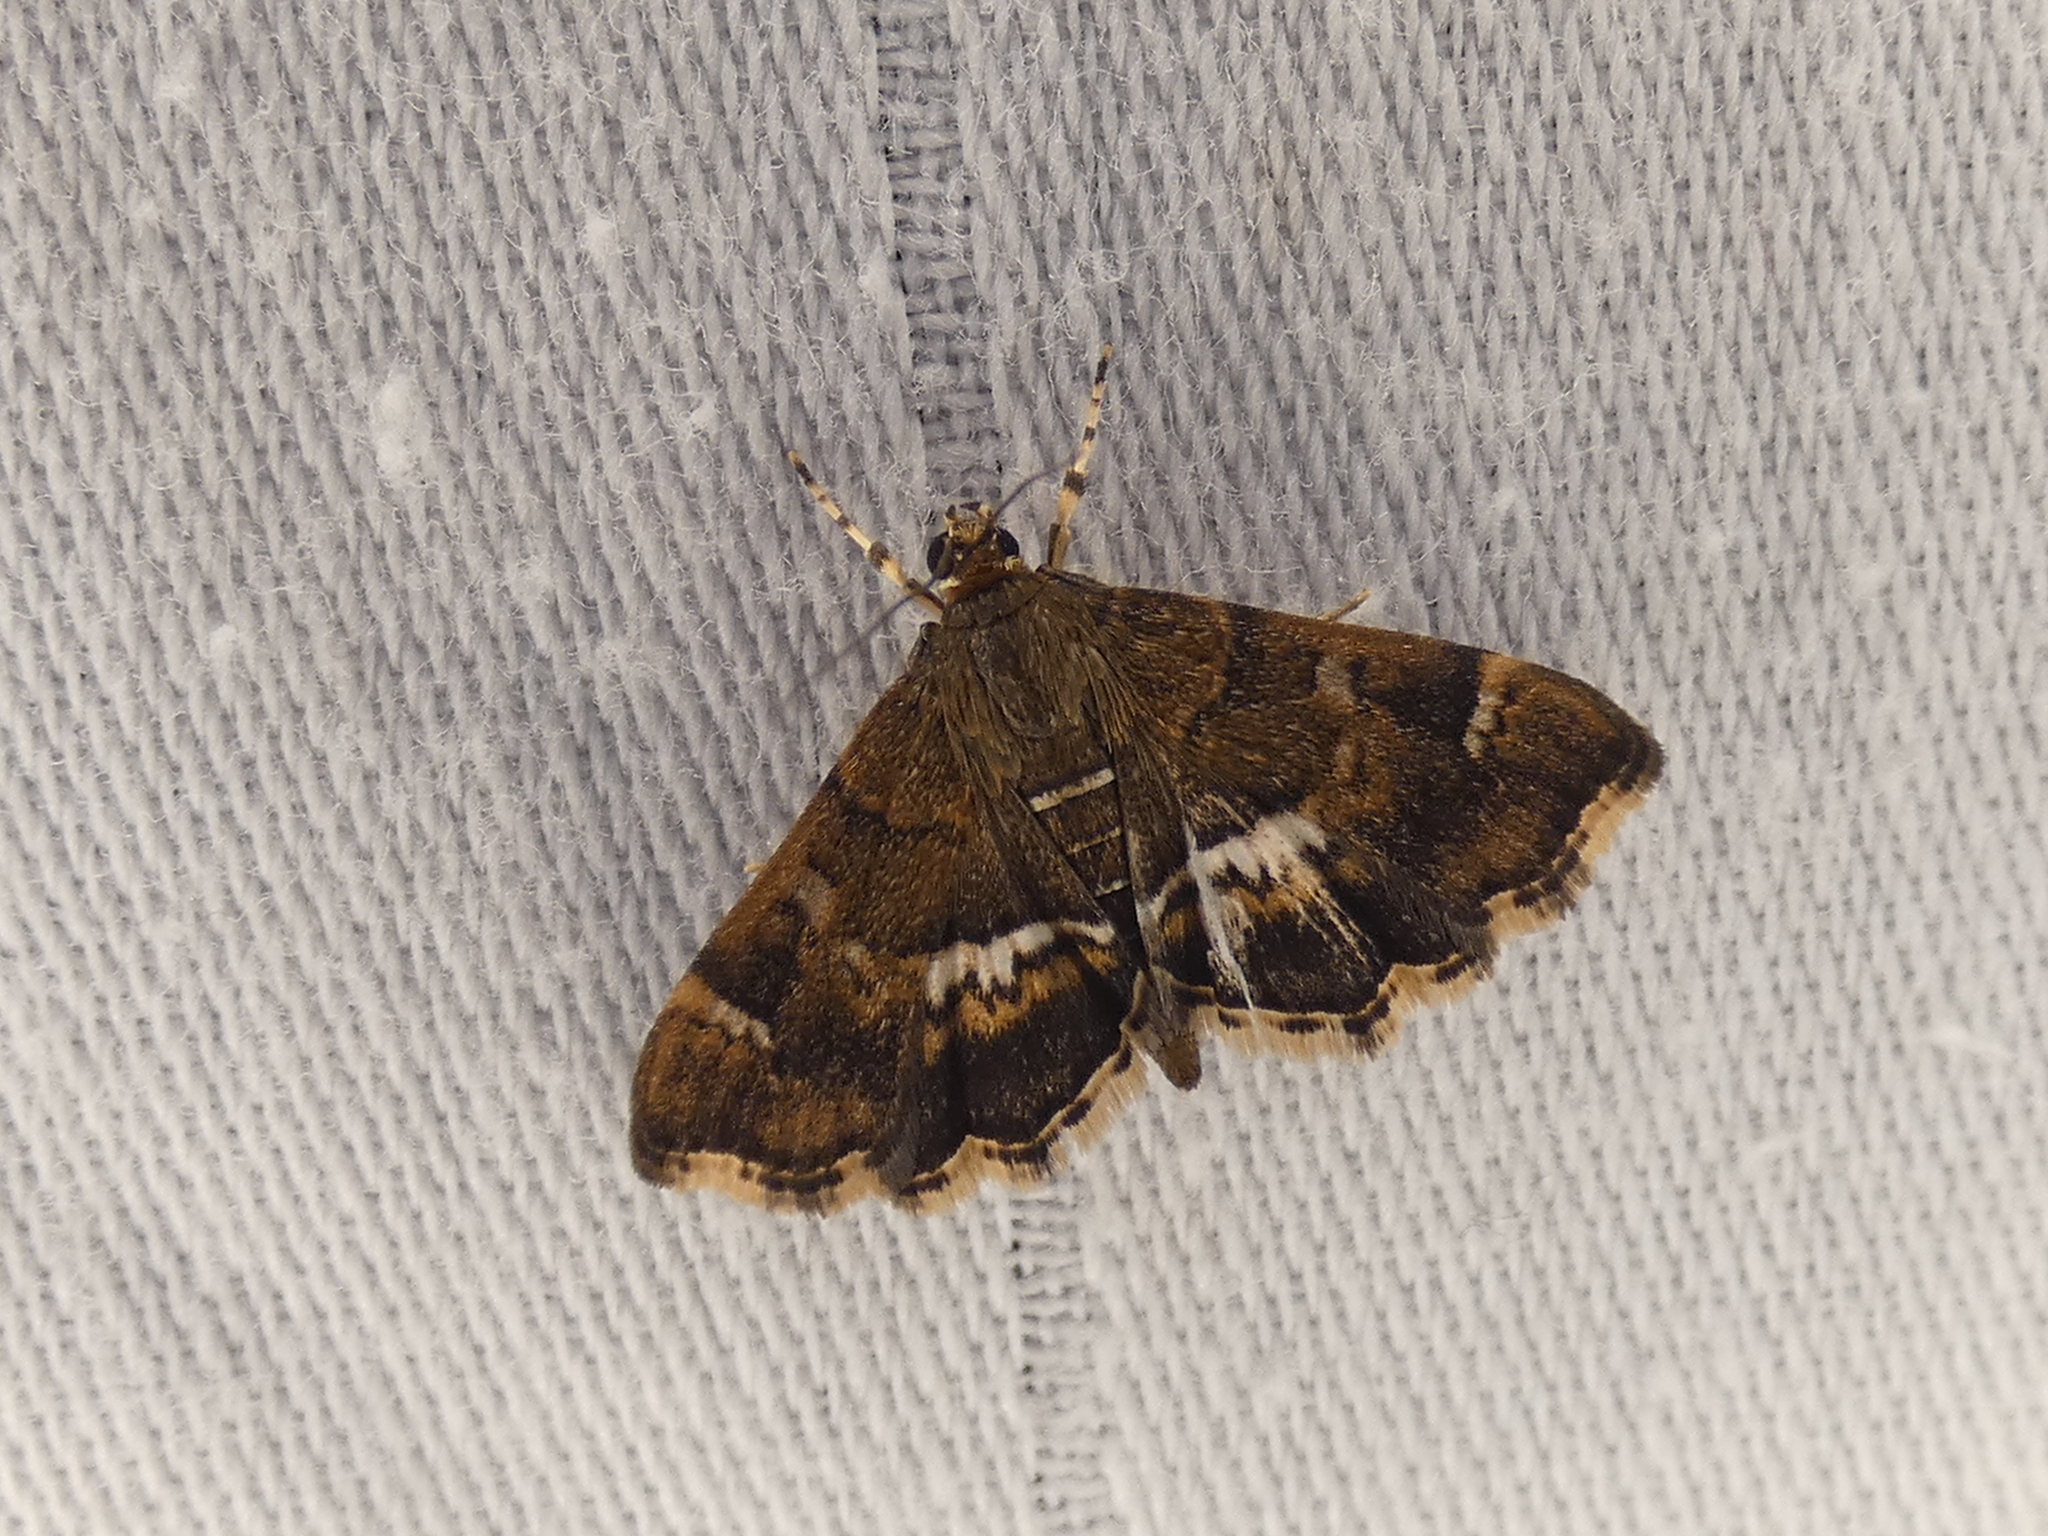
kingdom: Animalia
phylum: Arthropoda
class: Insecta
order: Lepidoptera
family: Crambidae
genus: Hymenia
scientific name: Hymenia perspectalis
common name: Spotted beet webworm
